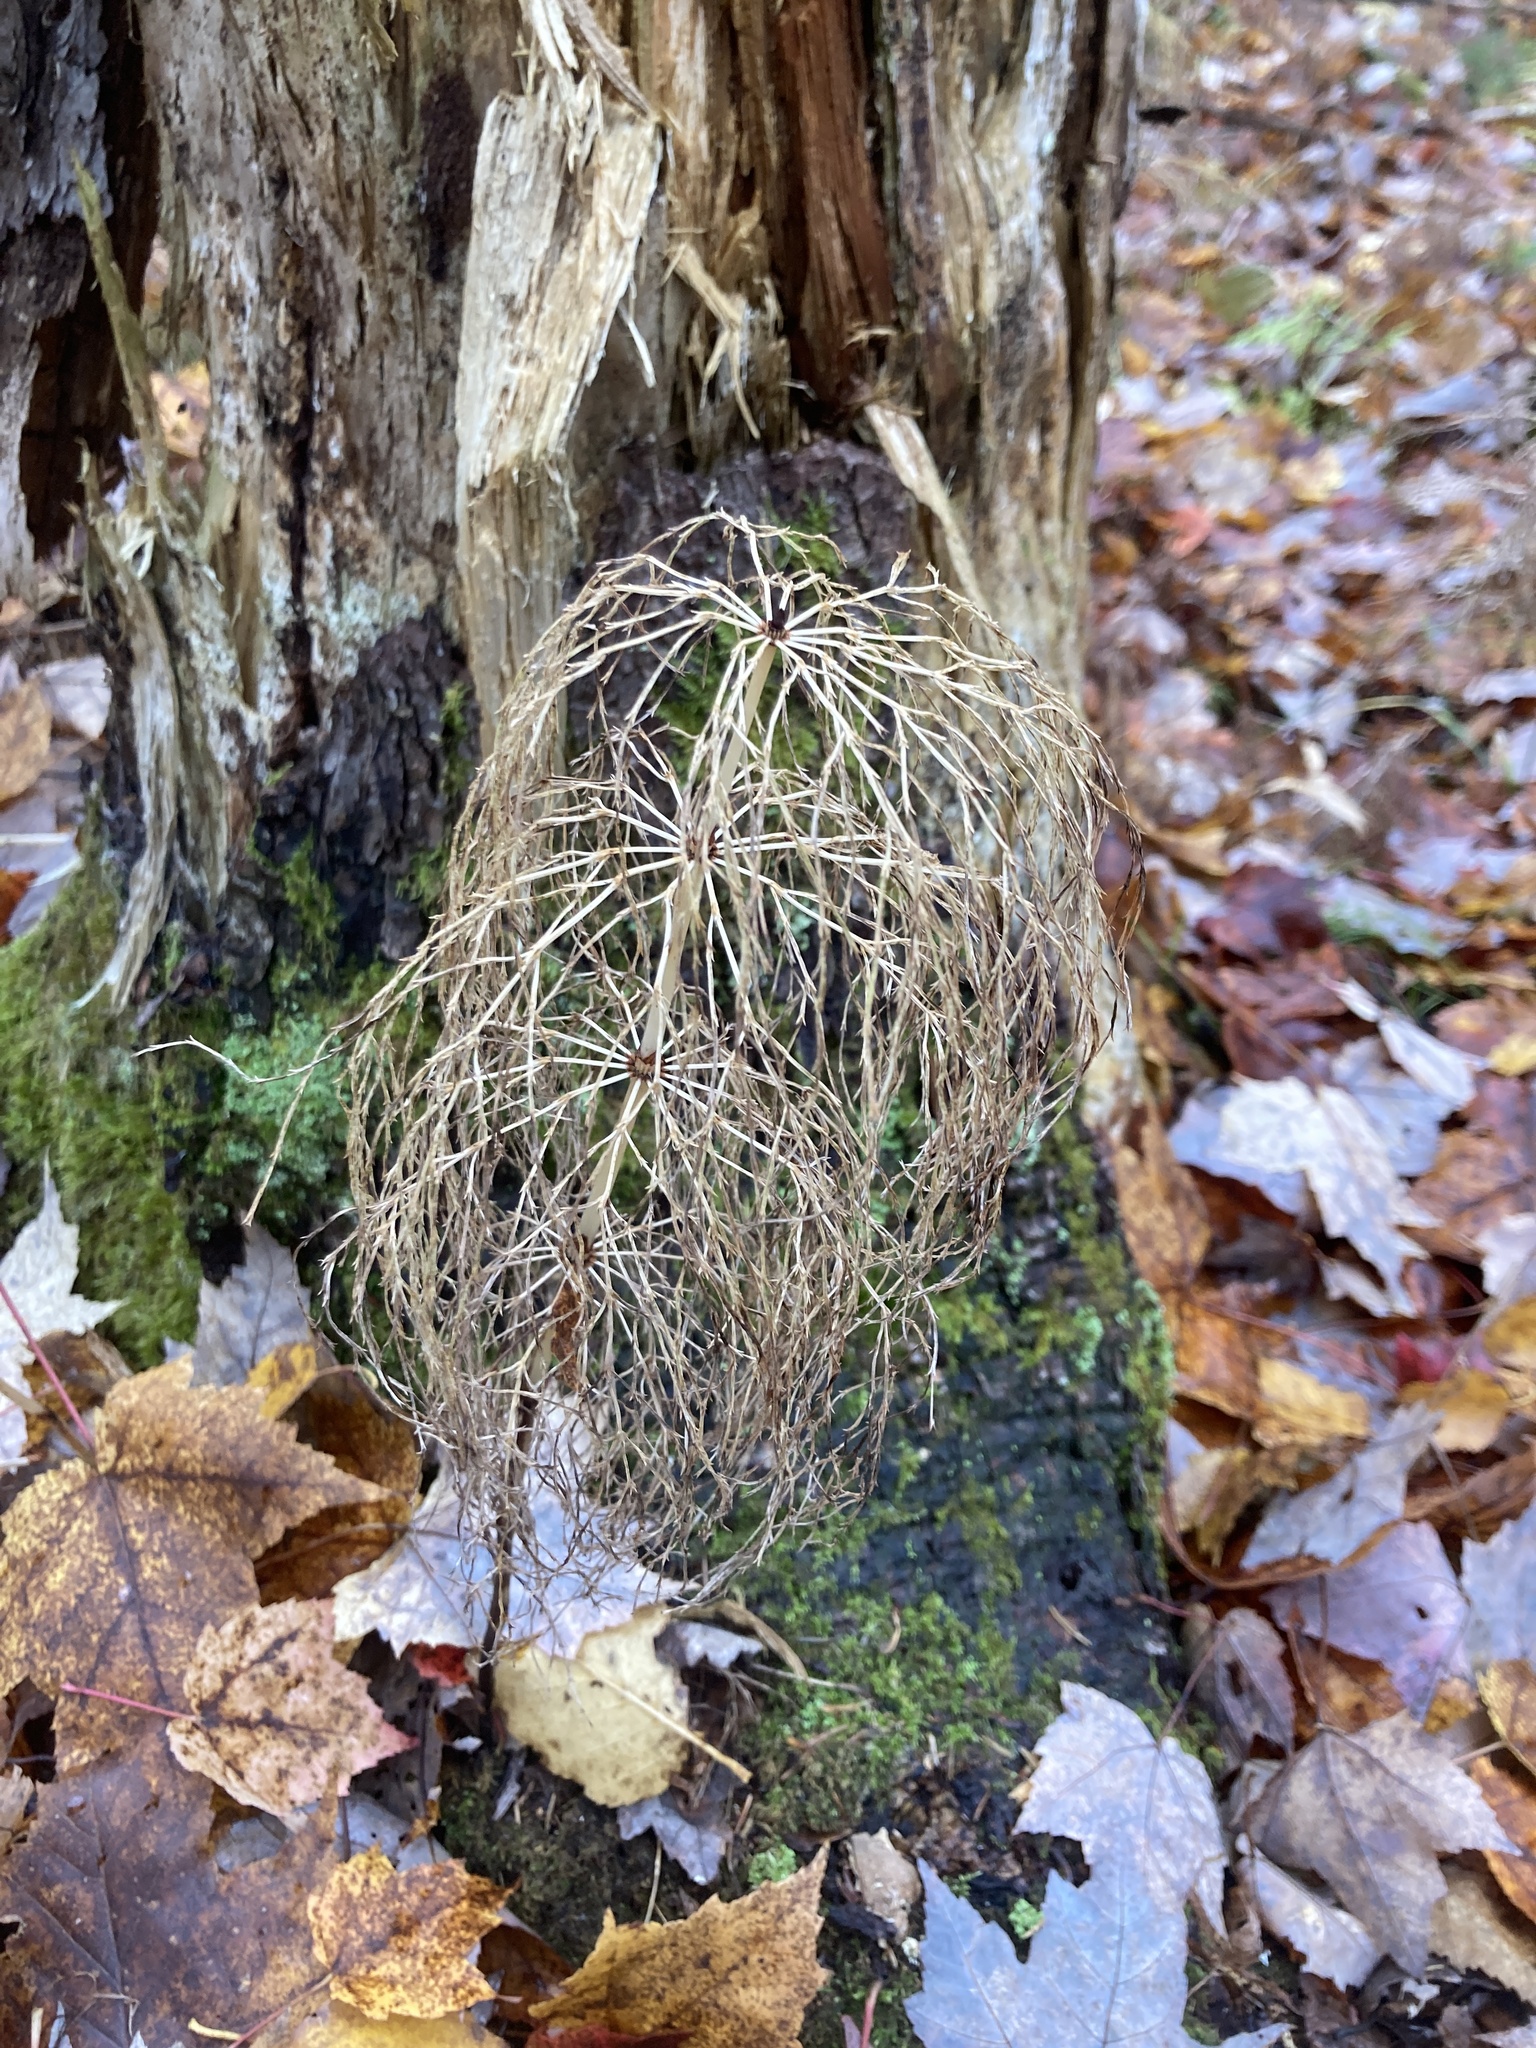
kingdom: Plantae
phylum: Tracheophyta
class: Polypodiopsida
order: Equisetales
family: Equisetaceae
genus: Equisetum
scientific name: Equisetum sylvaticum
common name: Wood horsetail
